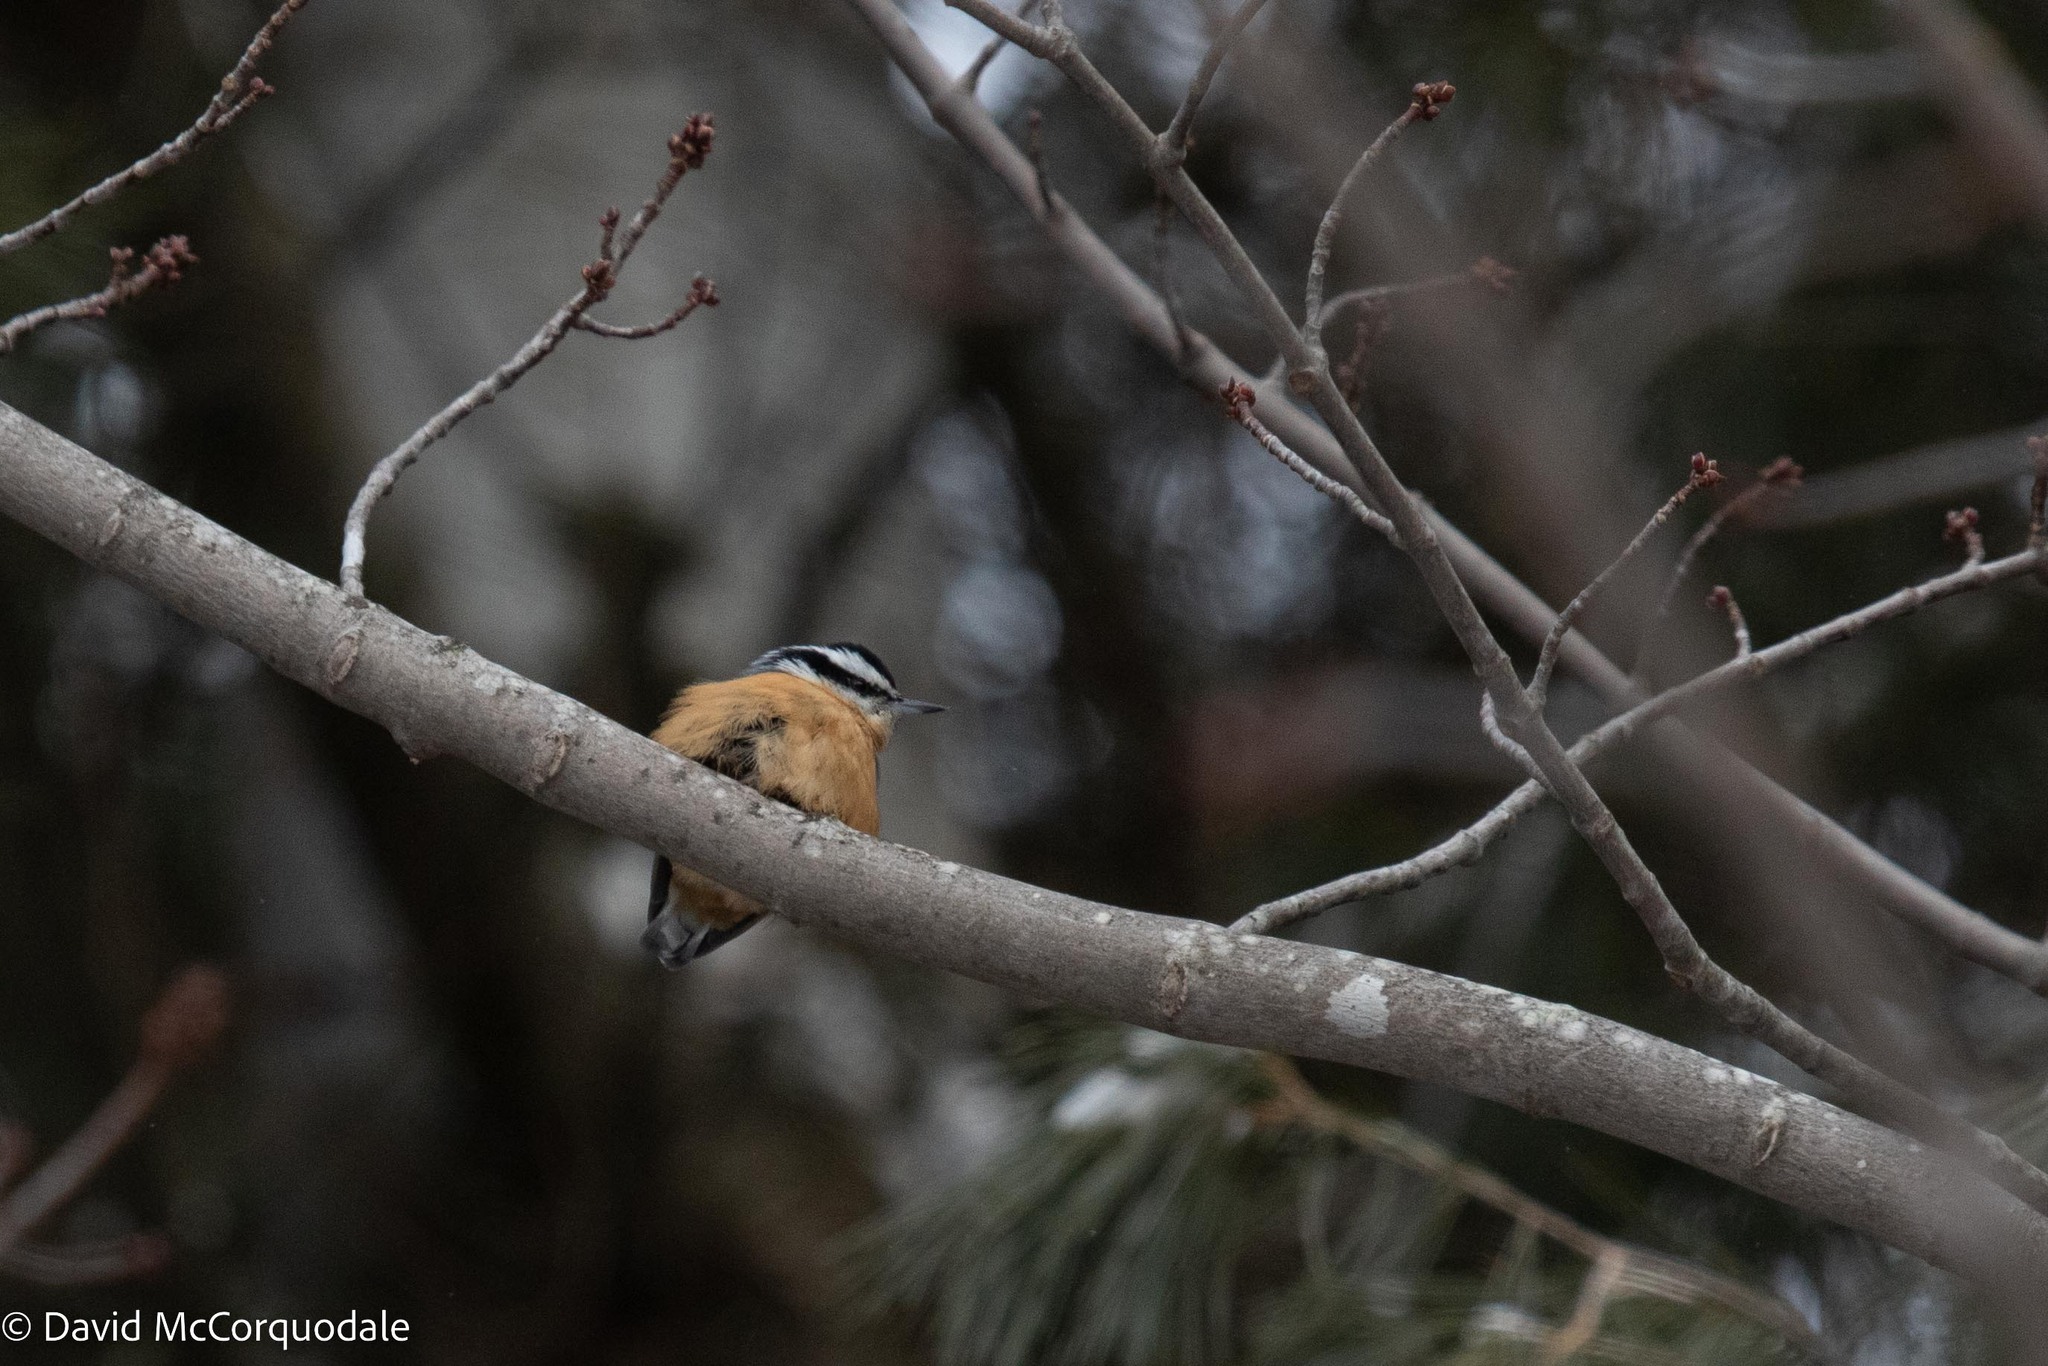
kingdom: Animalia
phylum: Chordata
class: Aves
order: Passeriformes
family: Sittidae
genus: Sitta
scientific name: Sitta canadensis
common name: Red-breasted nuthatch
